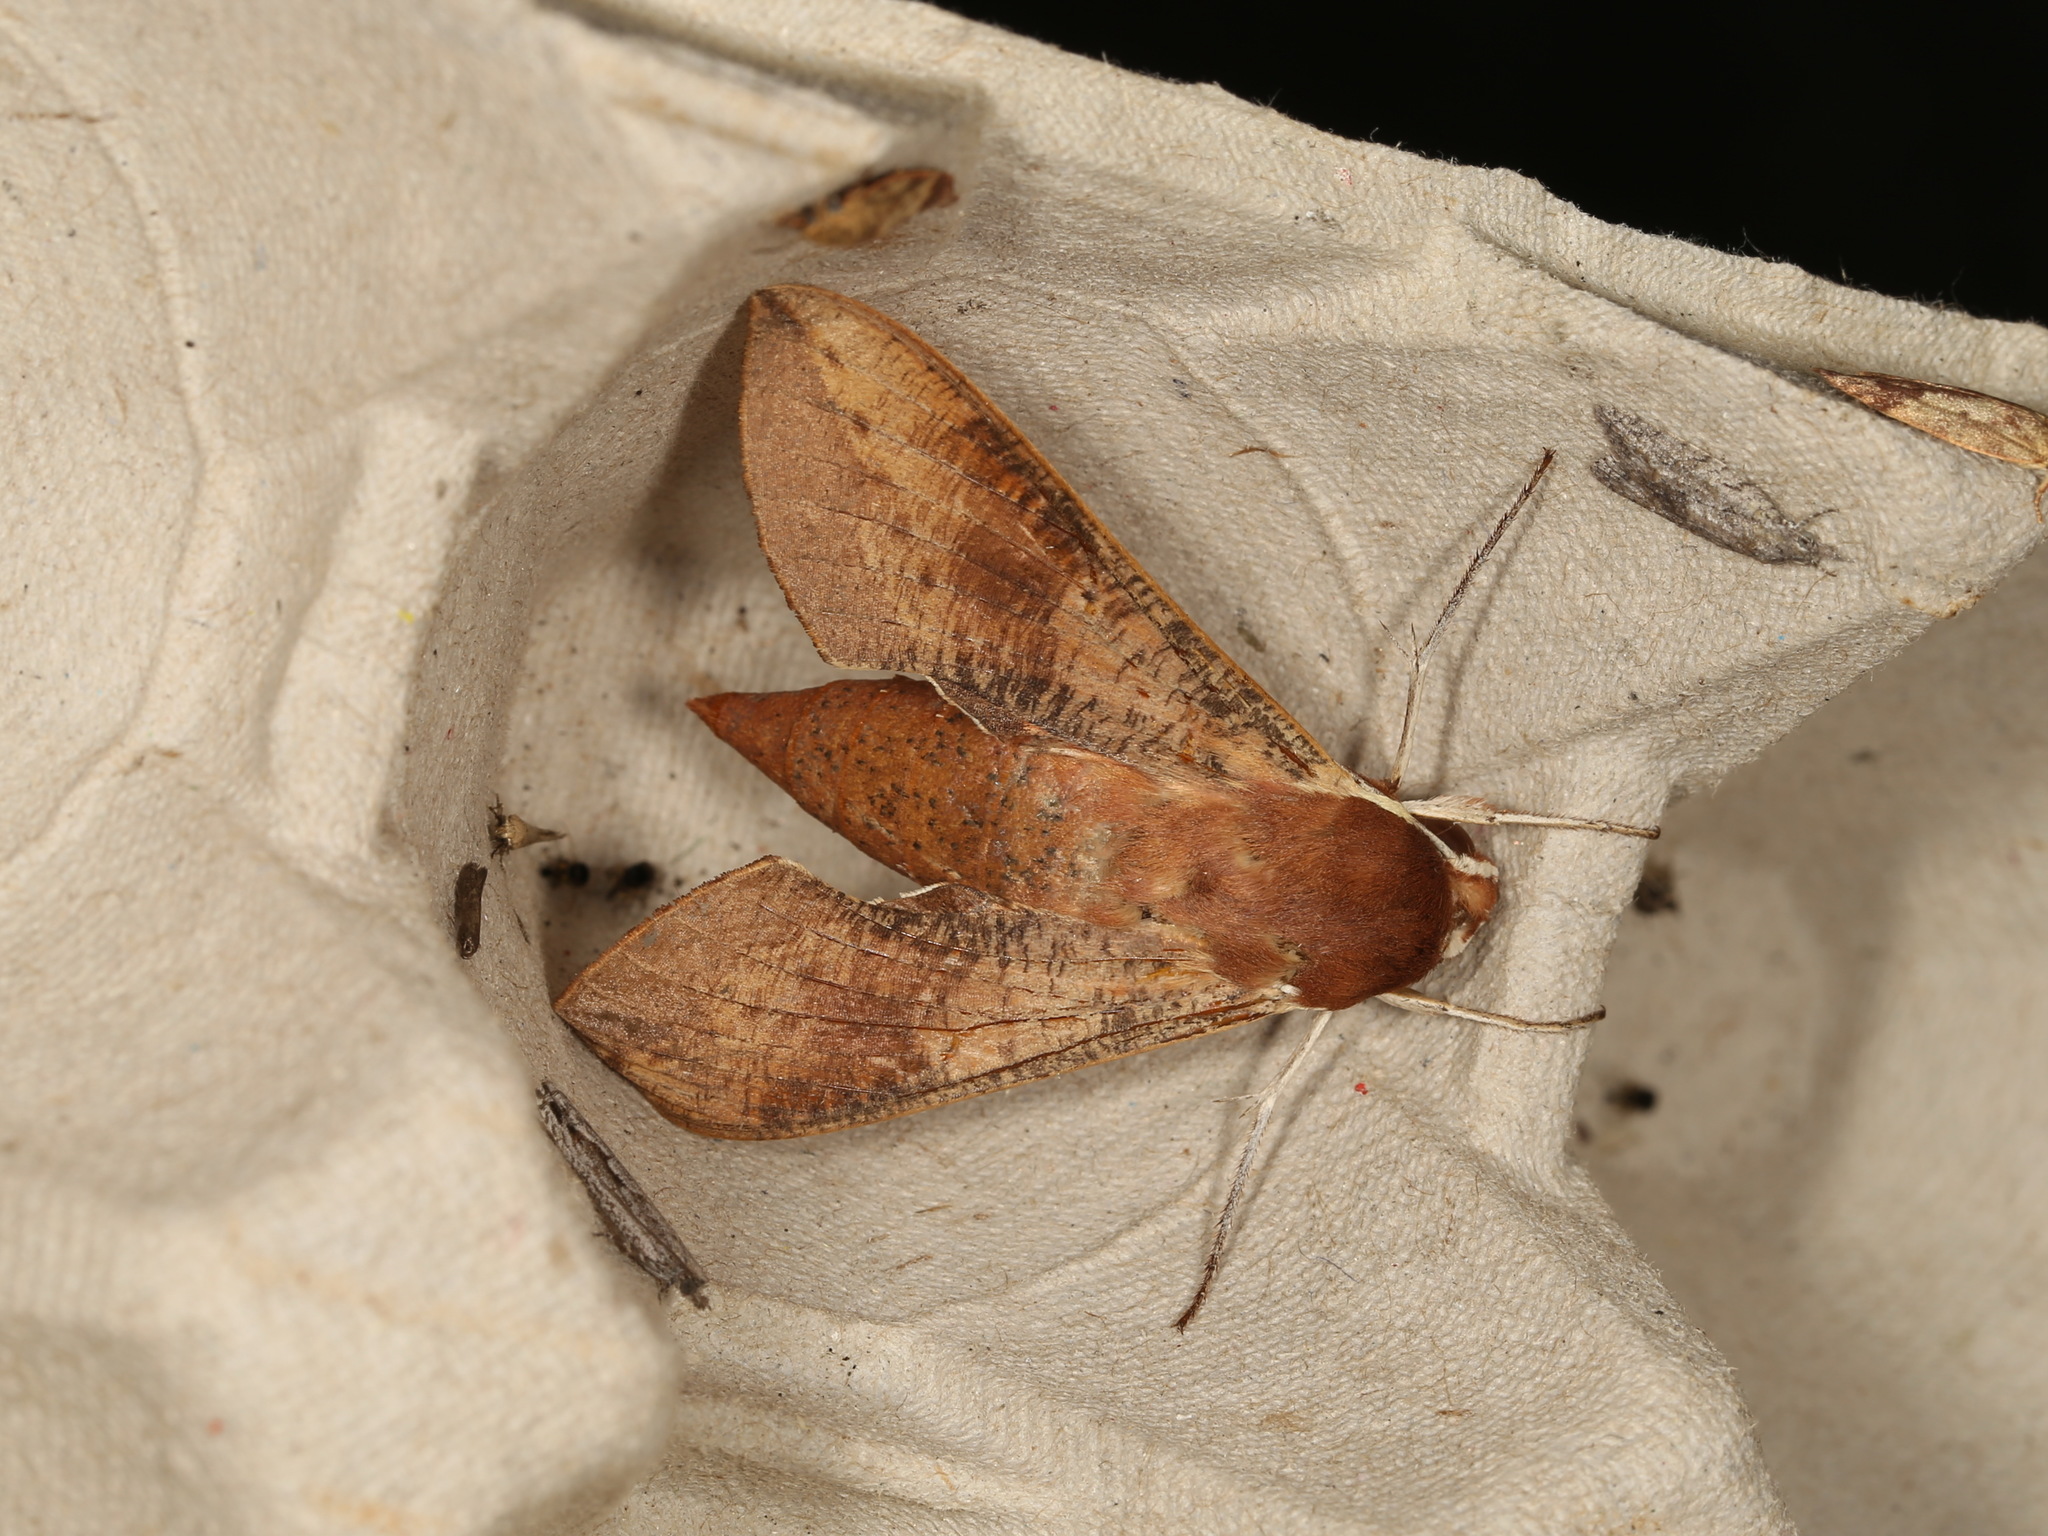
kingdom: Animalia
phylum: Arthropoda
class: Insecta
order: Lepidoptera
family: Sphingidae
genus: Hippotion
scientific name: Hippotion scrofa
